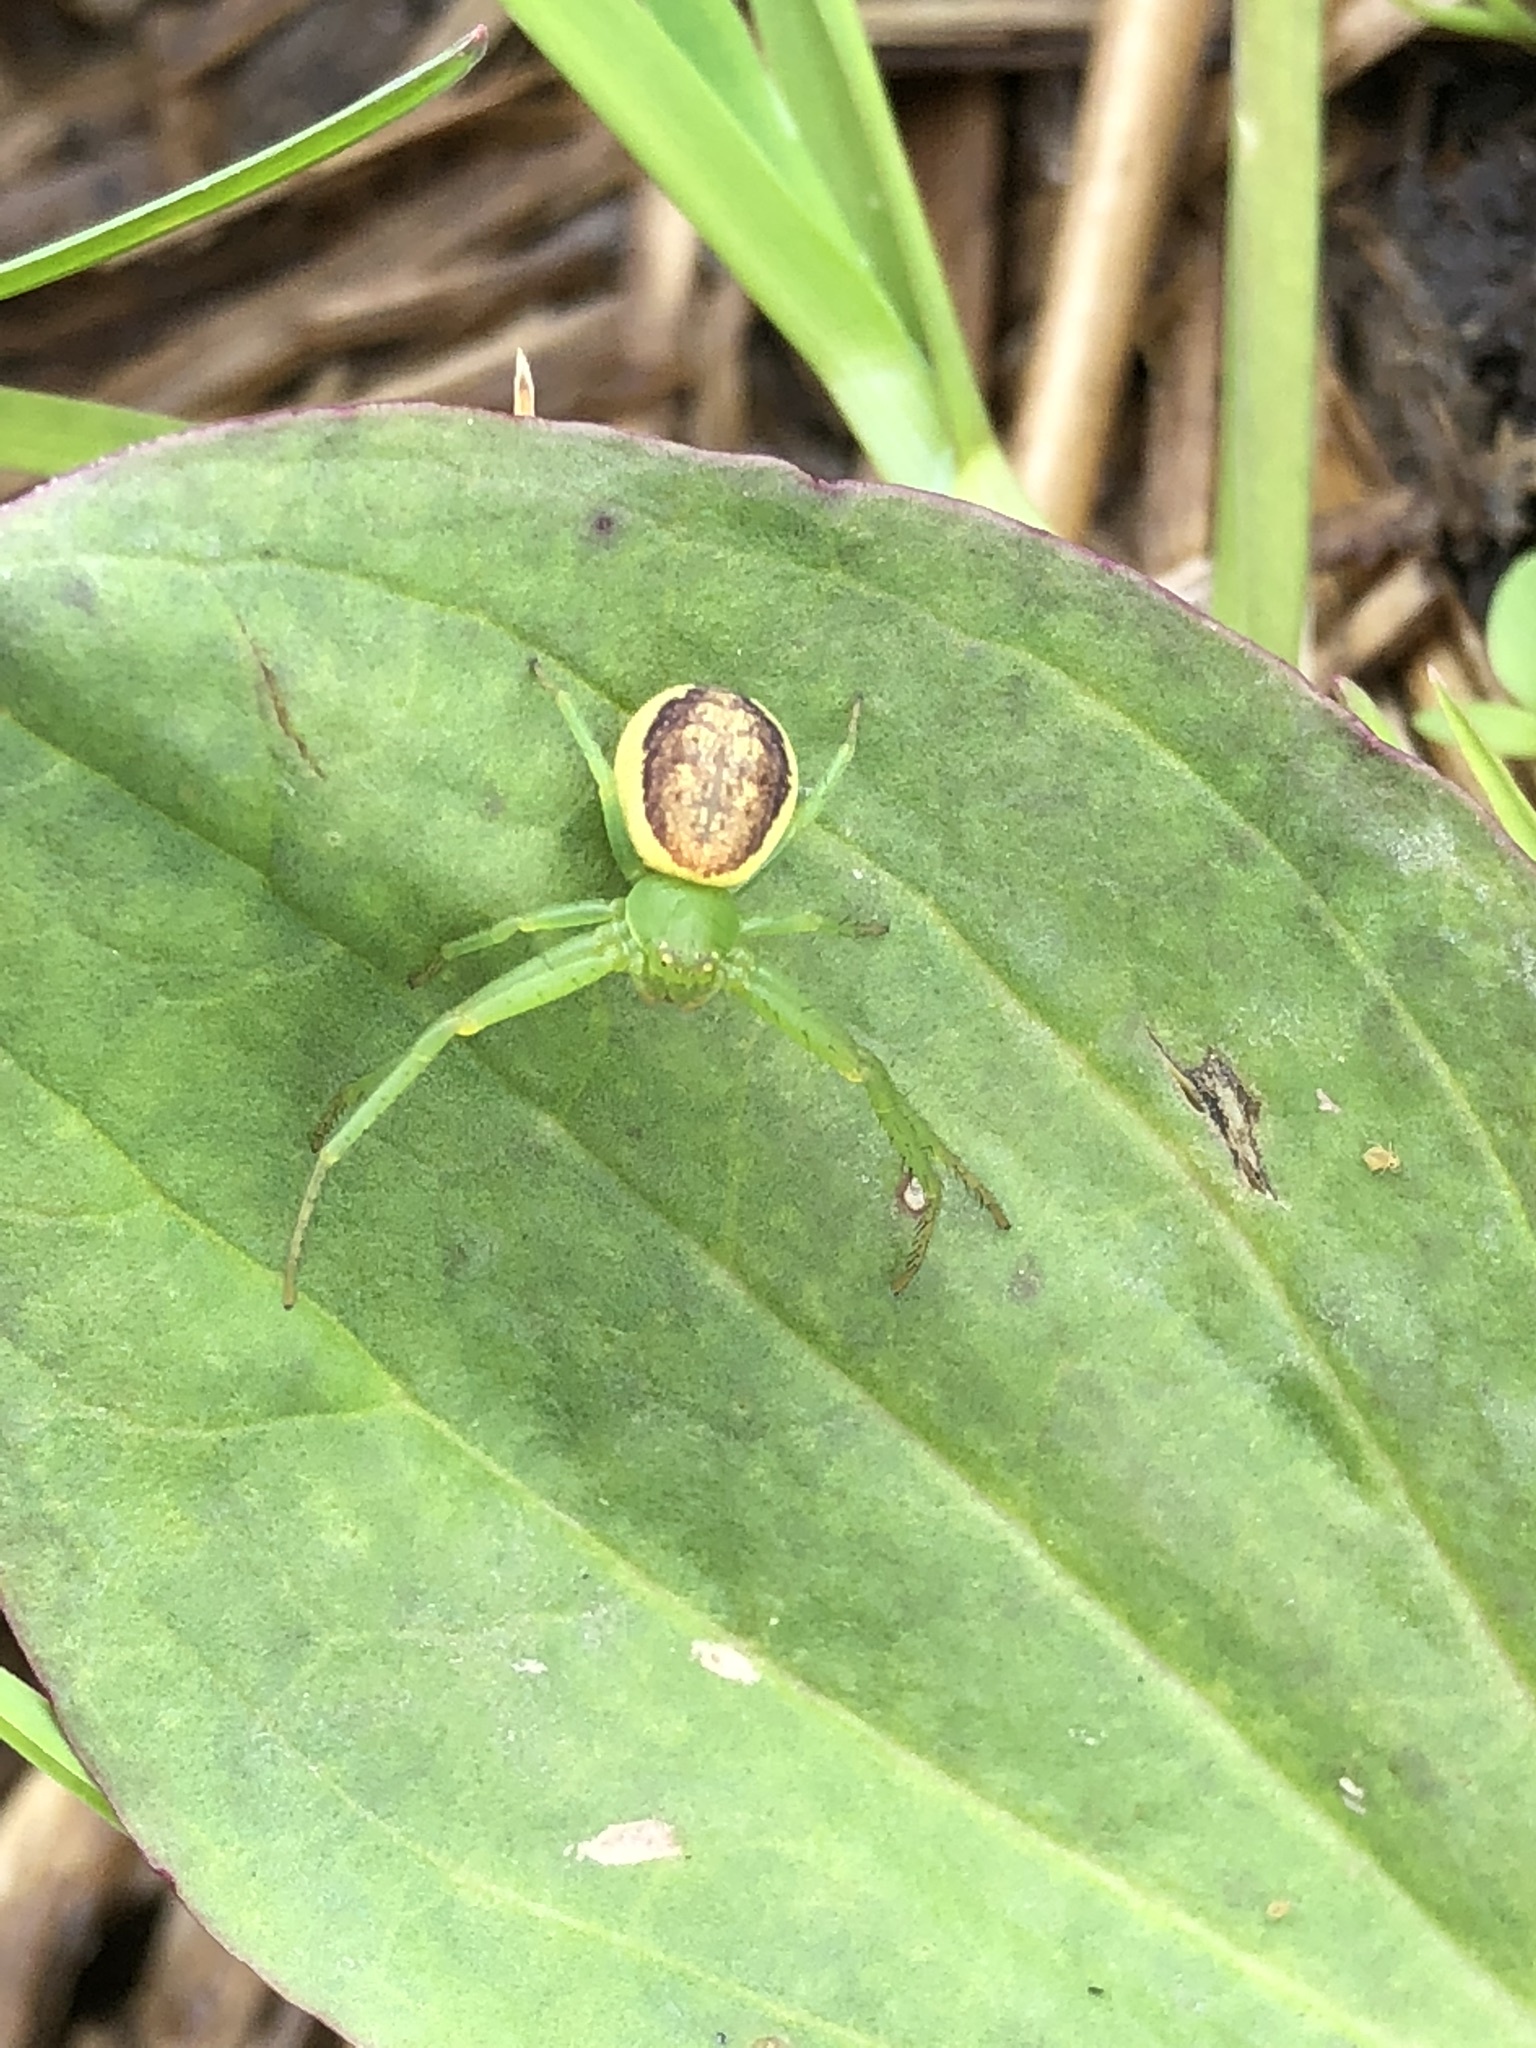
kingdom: Animalia
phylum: Arthropoda
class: Arachnida
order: Araneae
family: Thomisidae
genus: Diaea
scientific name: Diaea dorsata
